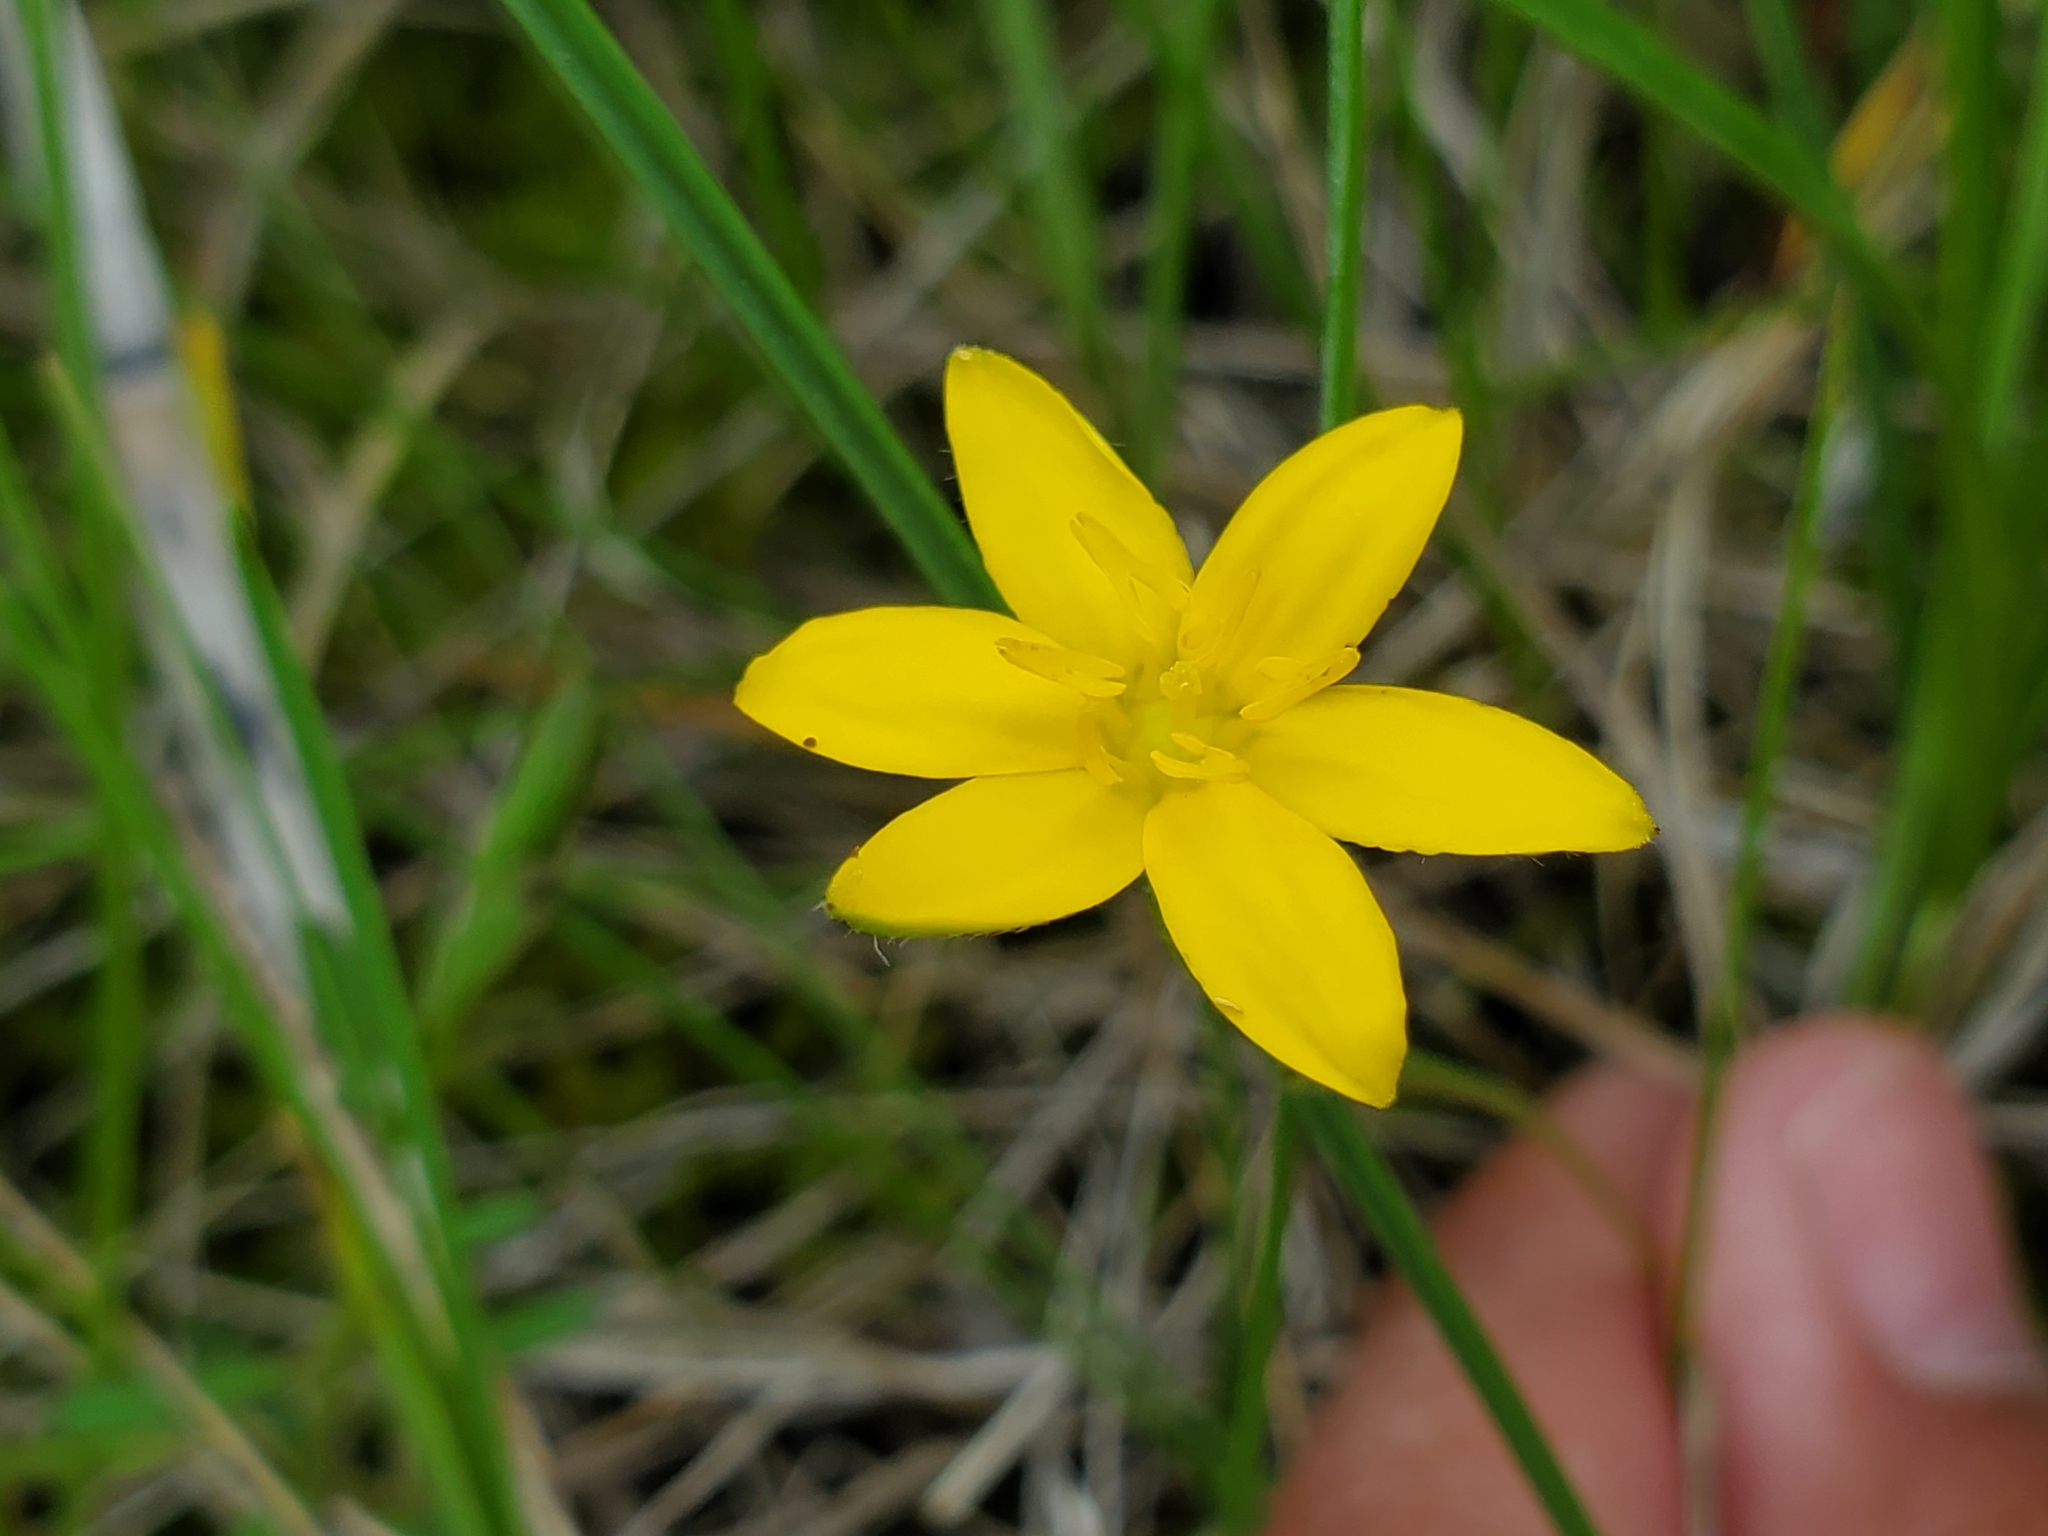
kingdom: Plantae
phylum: Tracheophyta
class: Liliopsida
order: Asparagales
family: Hypoxidaceae
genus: Hypoxis
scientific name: Hypoxis hirsuta
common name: Common goldstar
